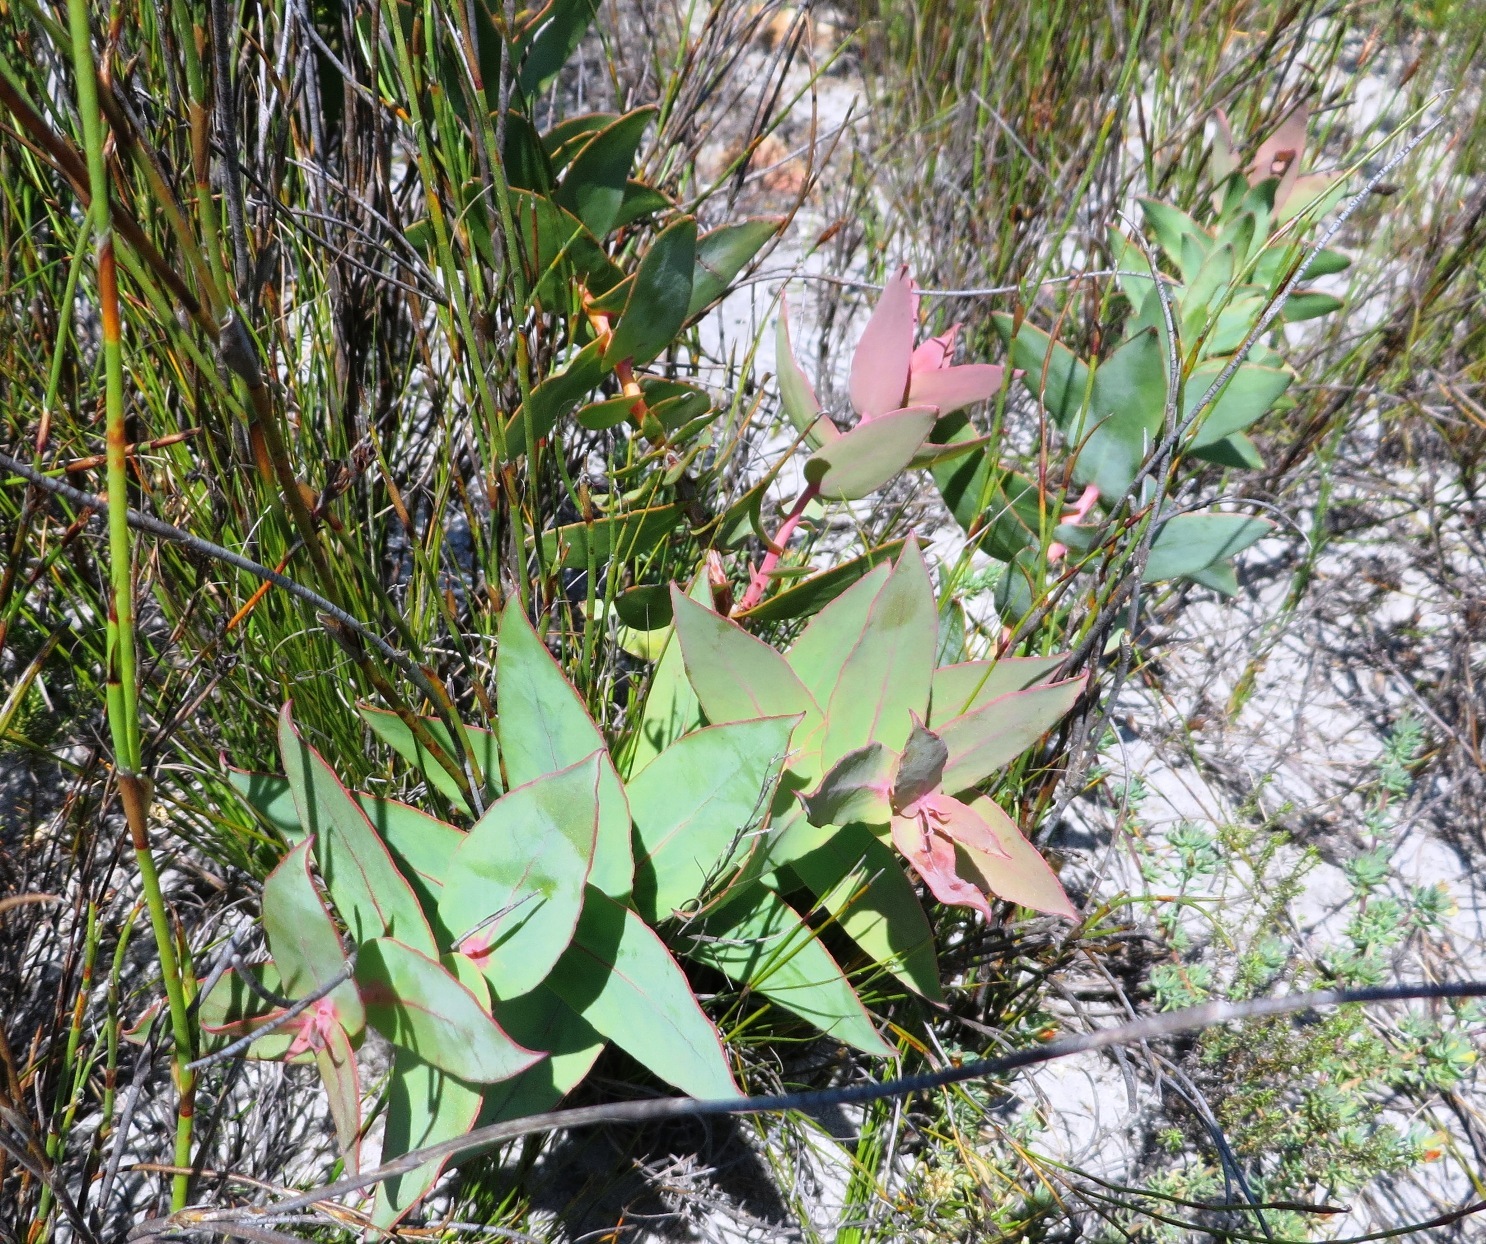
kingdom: Plantae
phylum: Tracheophyta
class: Magnoliopsida
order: Proteales
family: Proteaceae
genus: Protea
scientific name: Protea amplexicaulis
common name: Clasping-leaf sugarbush
